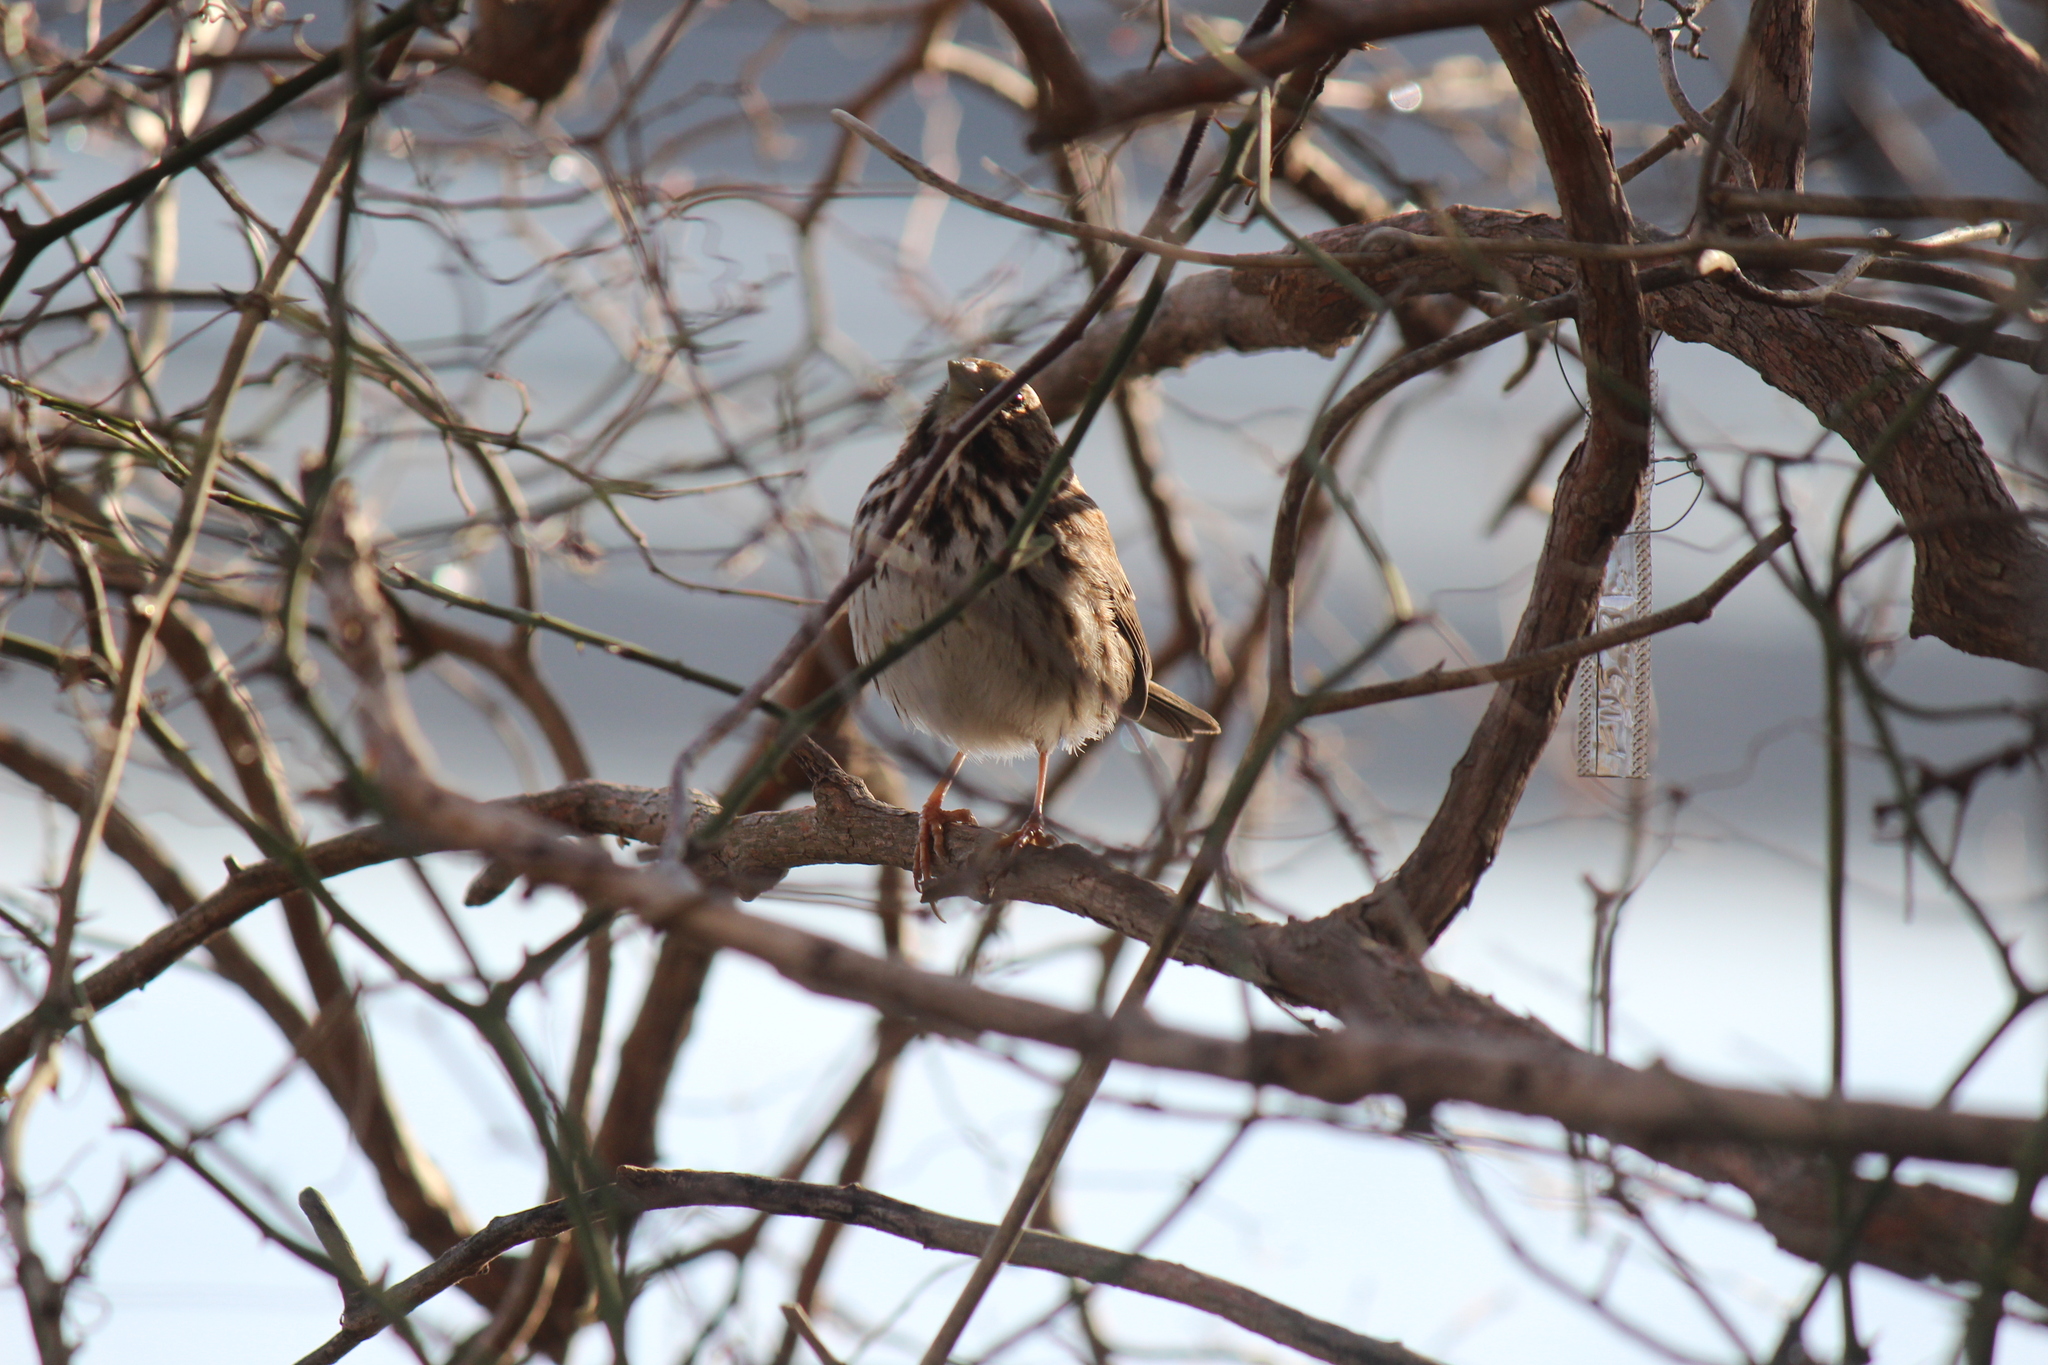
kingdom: Animalia
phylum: Chordata
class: Aves
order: Passeriformes
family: Passerellidae
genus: Melospiza
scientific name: Melospiza melodia
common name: Song sparrow
